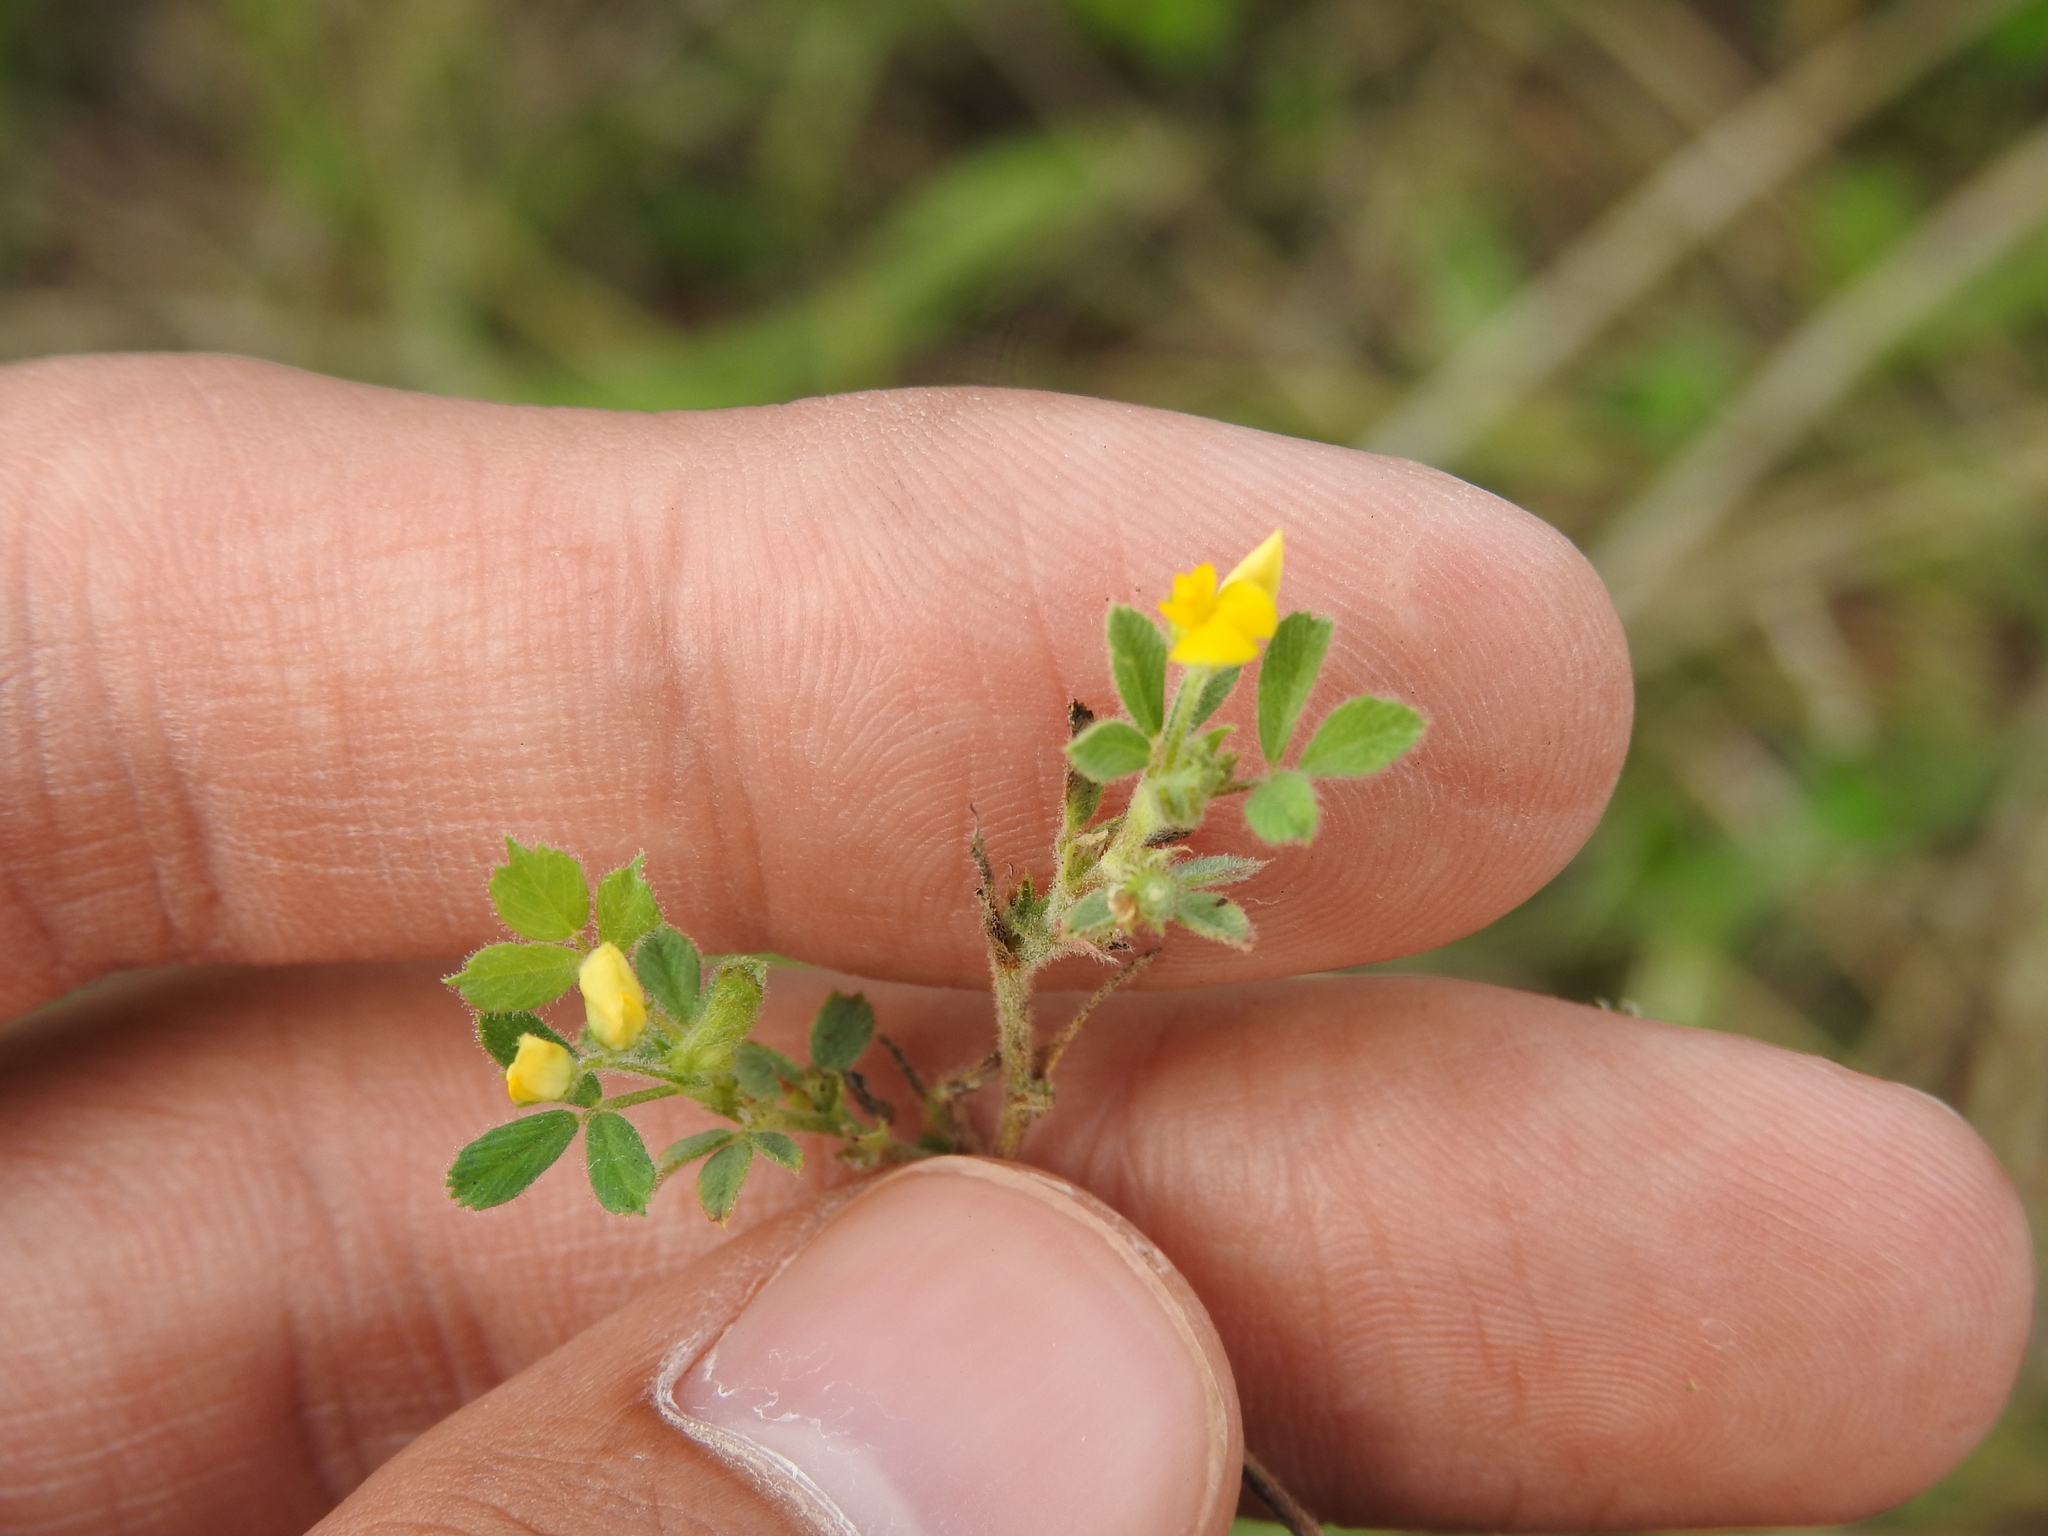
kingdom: Plantae
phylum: Tracheophyta
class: Magnoliopsida
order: Fabales
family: Fabaceae
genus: Medicago
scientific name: Medicago minima
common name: Little bur-clover
